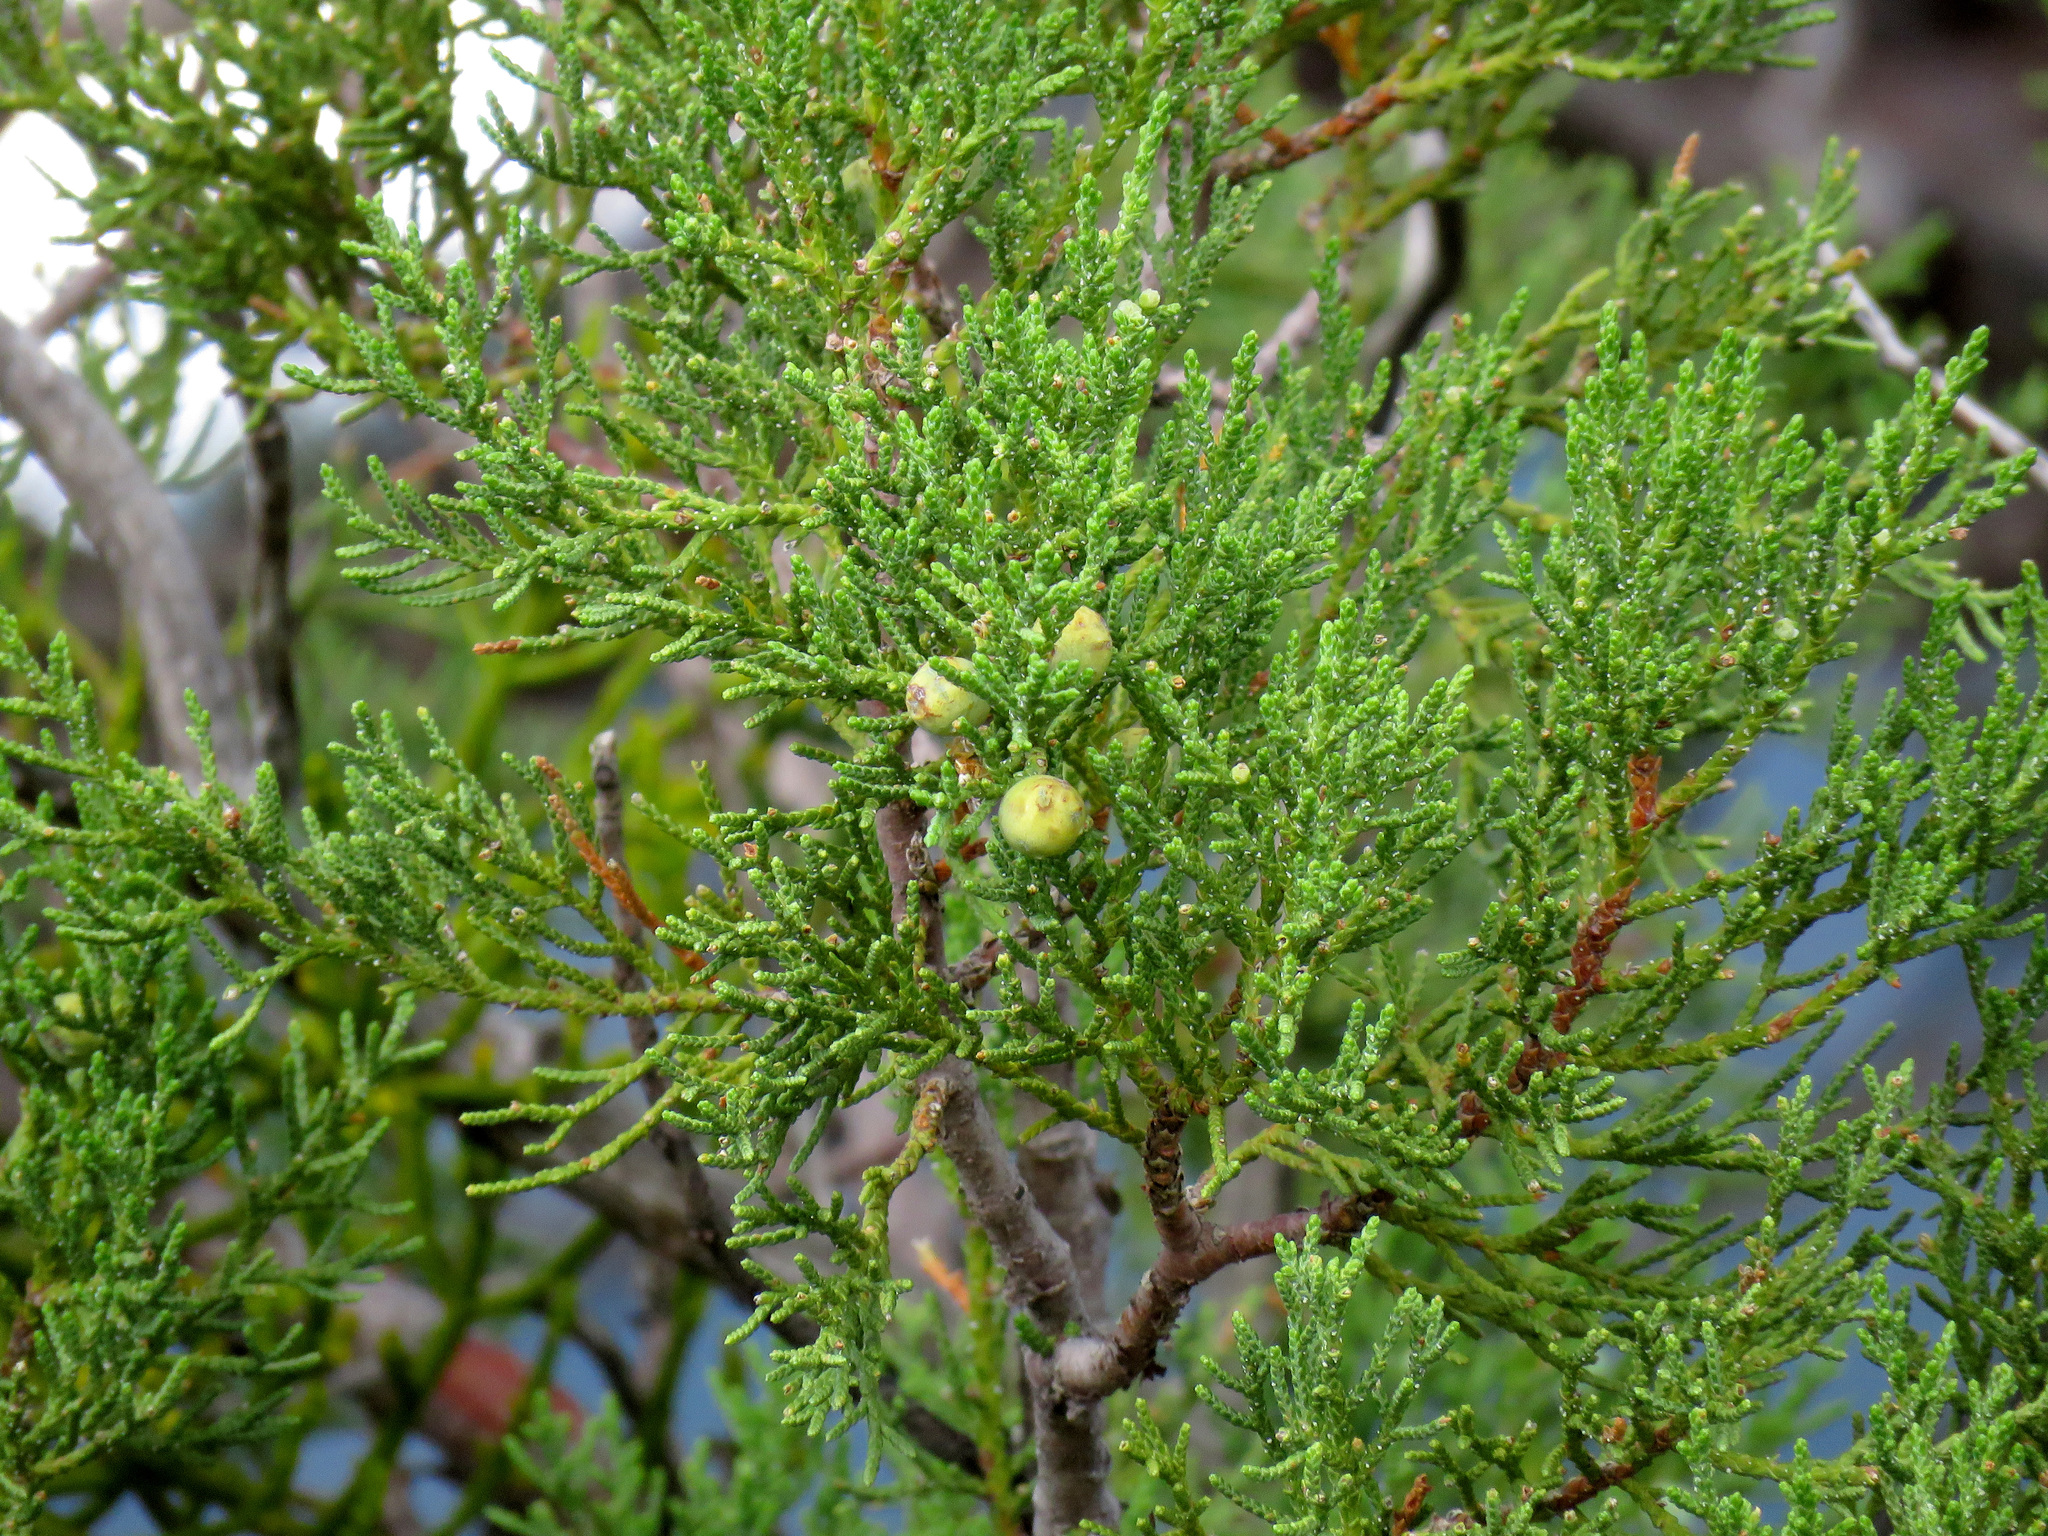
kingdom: Plantae
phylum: Tracheophyta
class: Pinopsida
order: Pinales
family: Cupressaceae
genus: Juniperus
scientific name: Juniperus deppeana
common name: Alligator juniper
